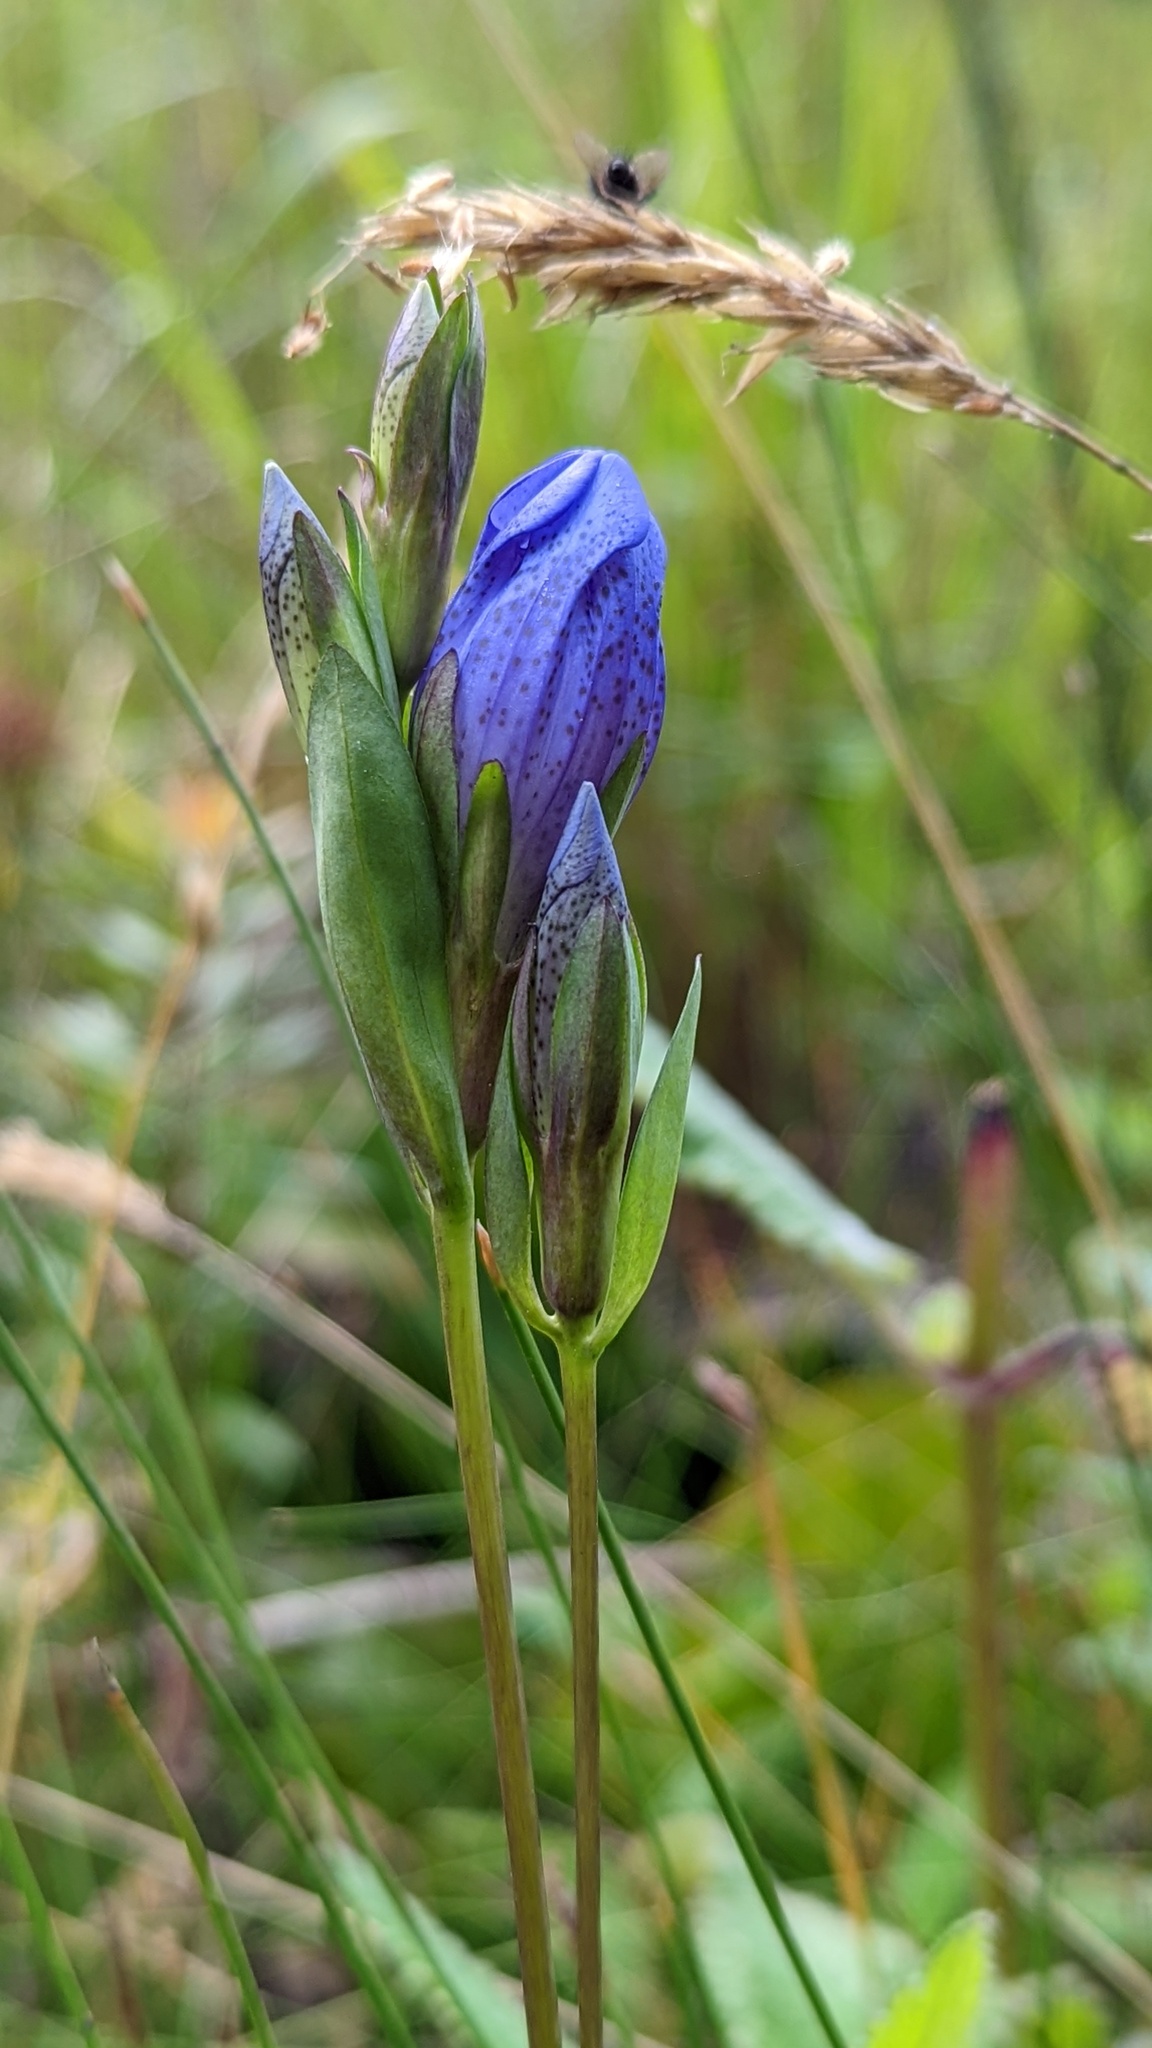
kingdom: Plantae
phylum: Tracheophyta
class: Magnoliopsida
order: Gentianales
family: Gentianaceae
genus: Gentiana
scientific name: Gentiana sceptrum
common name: Pacific gentian
